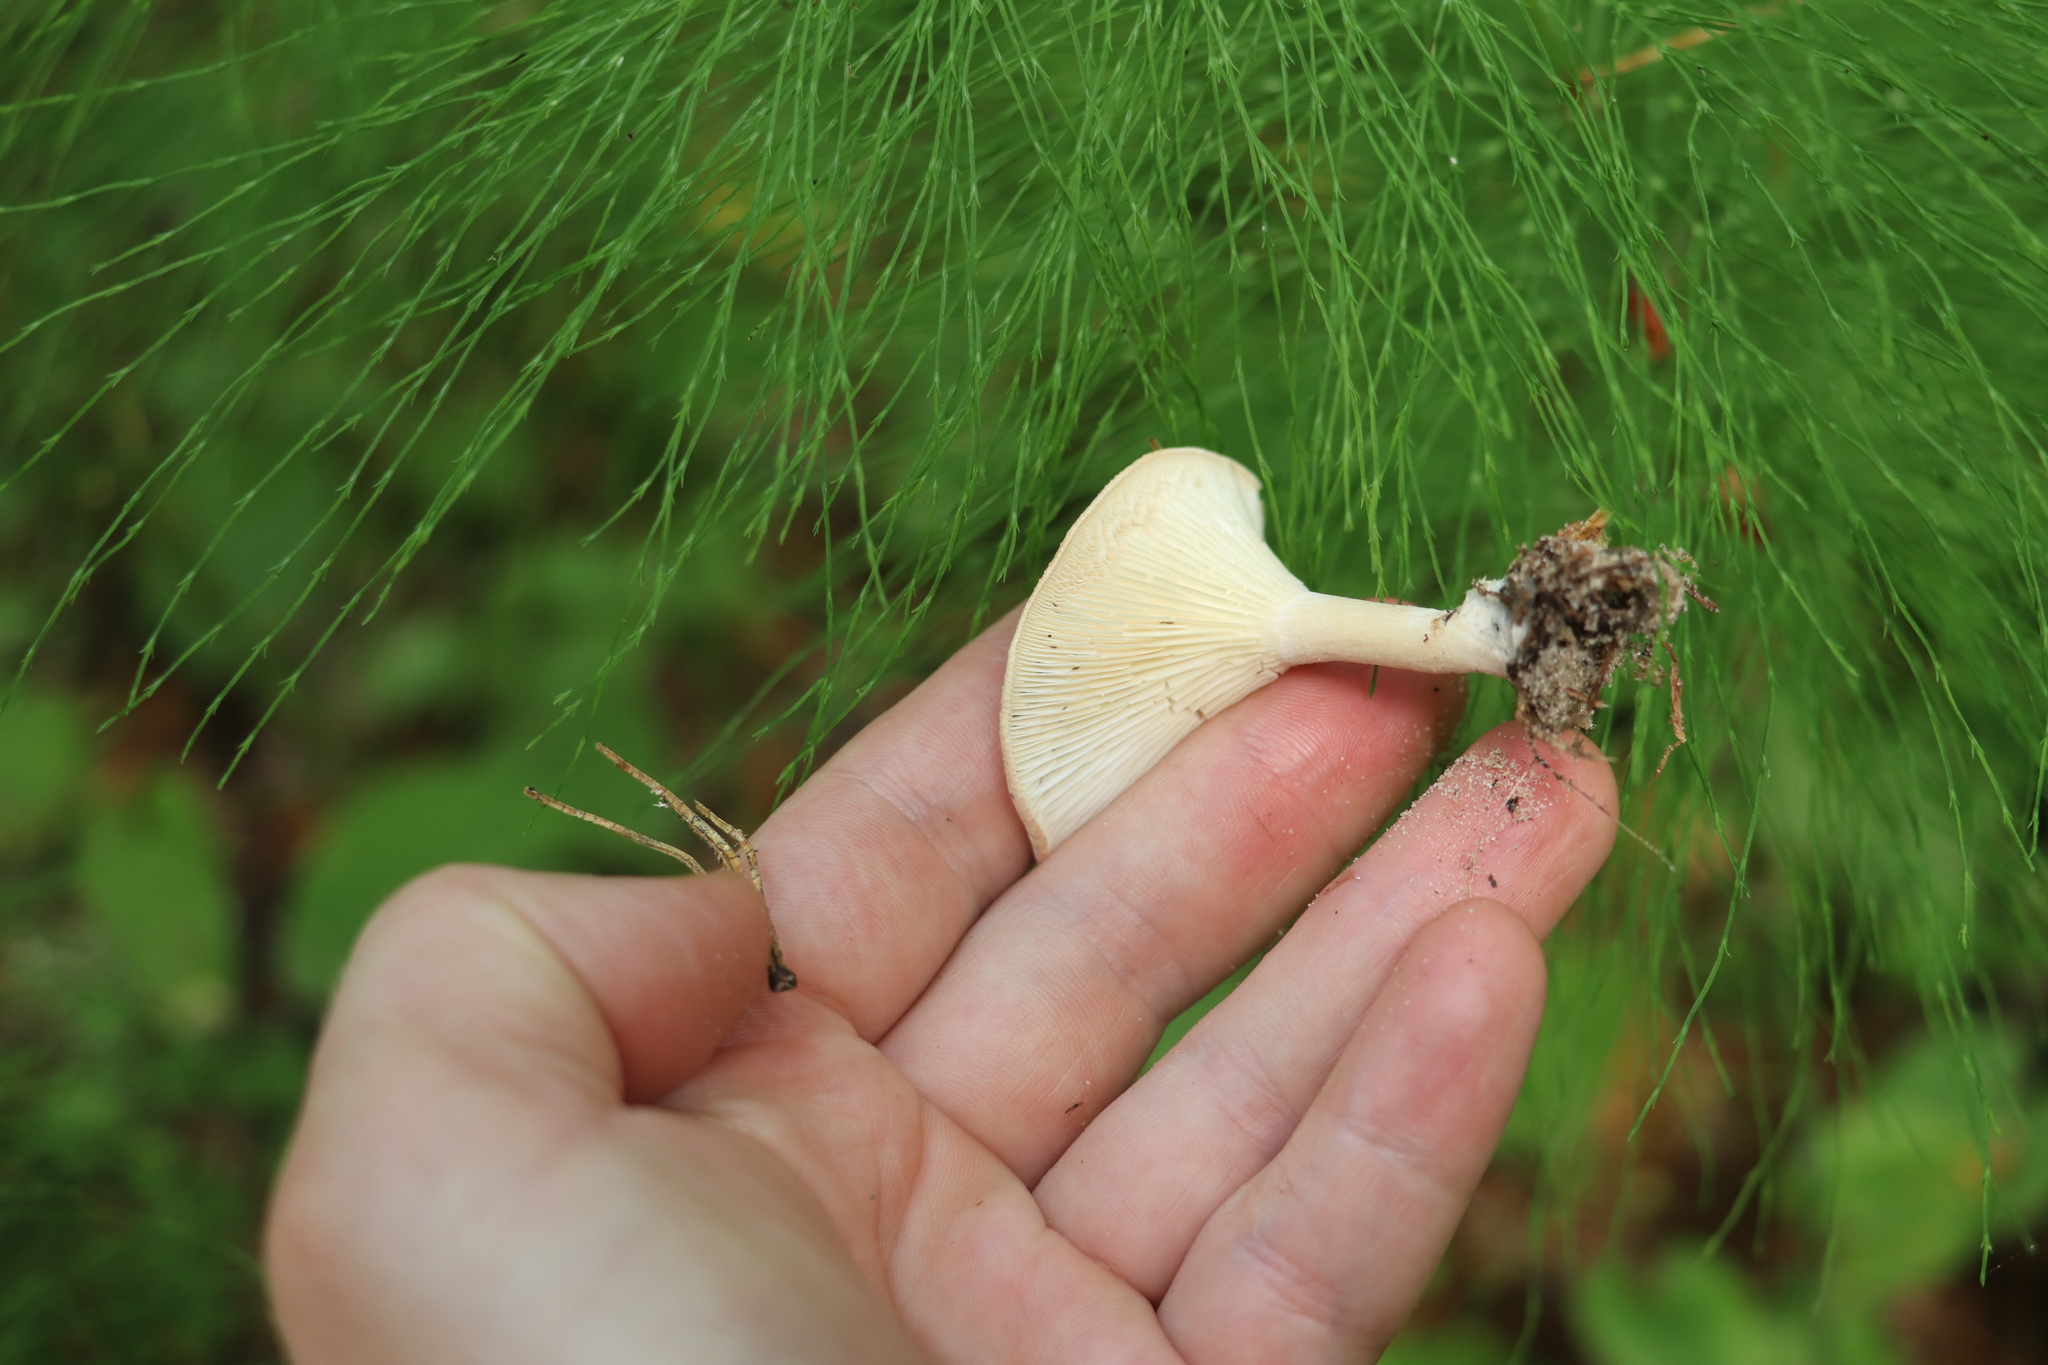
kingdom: Fungi
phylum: Basidiomycota
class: Agaricomycetes
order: Agaricales
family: Tricholomataceae
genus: Infundibulicybe
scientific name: Infundibulicybe gibba
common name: Common funnel
